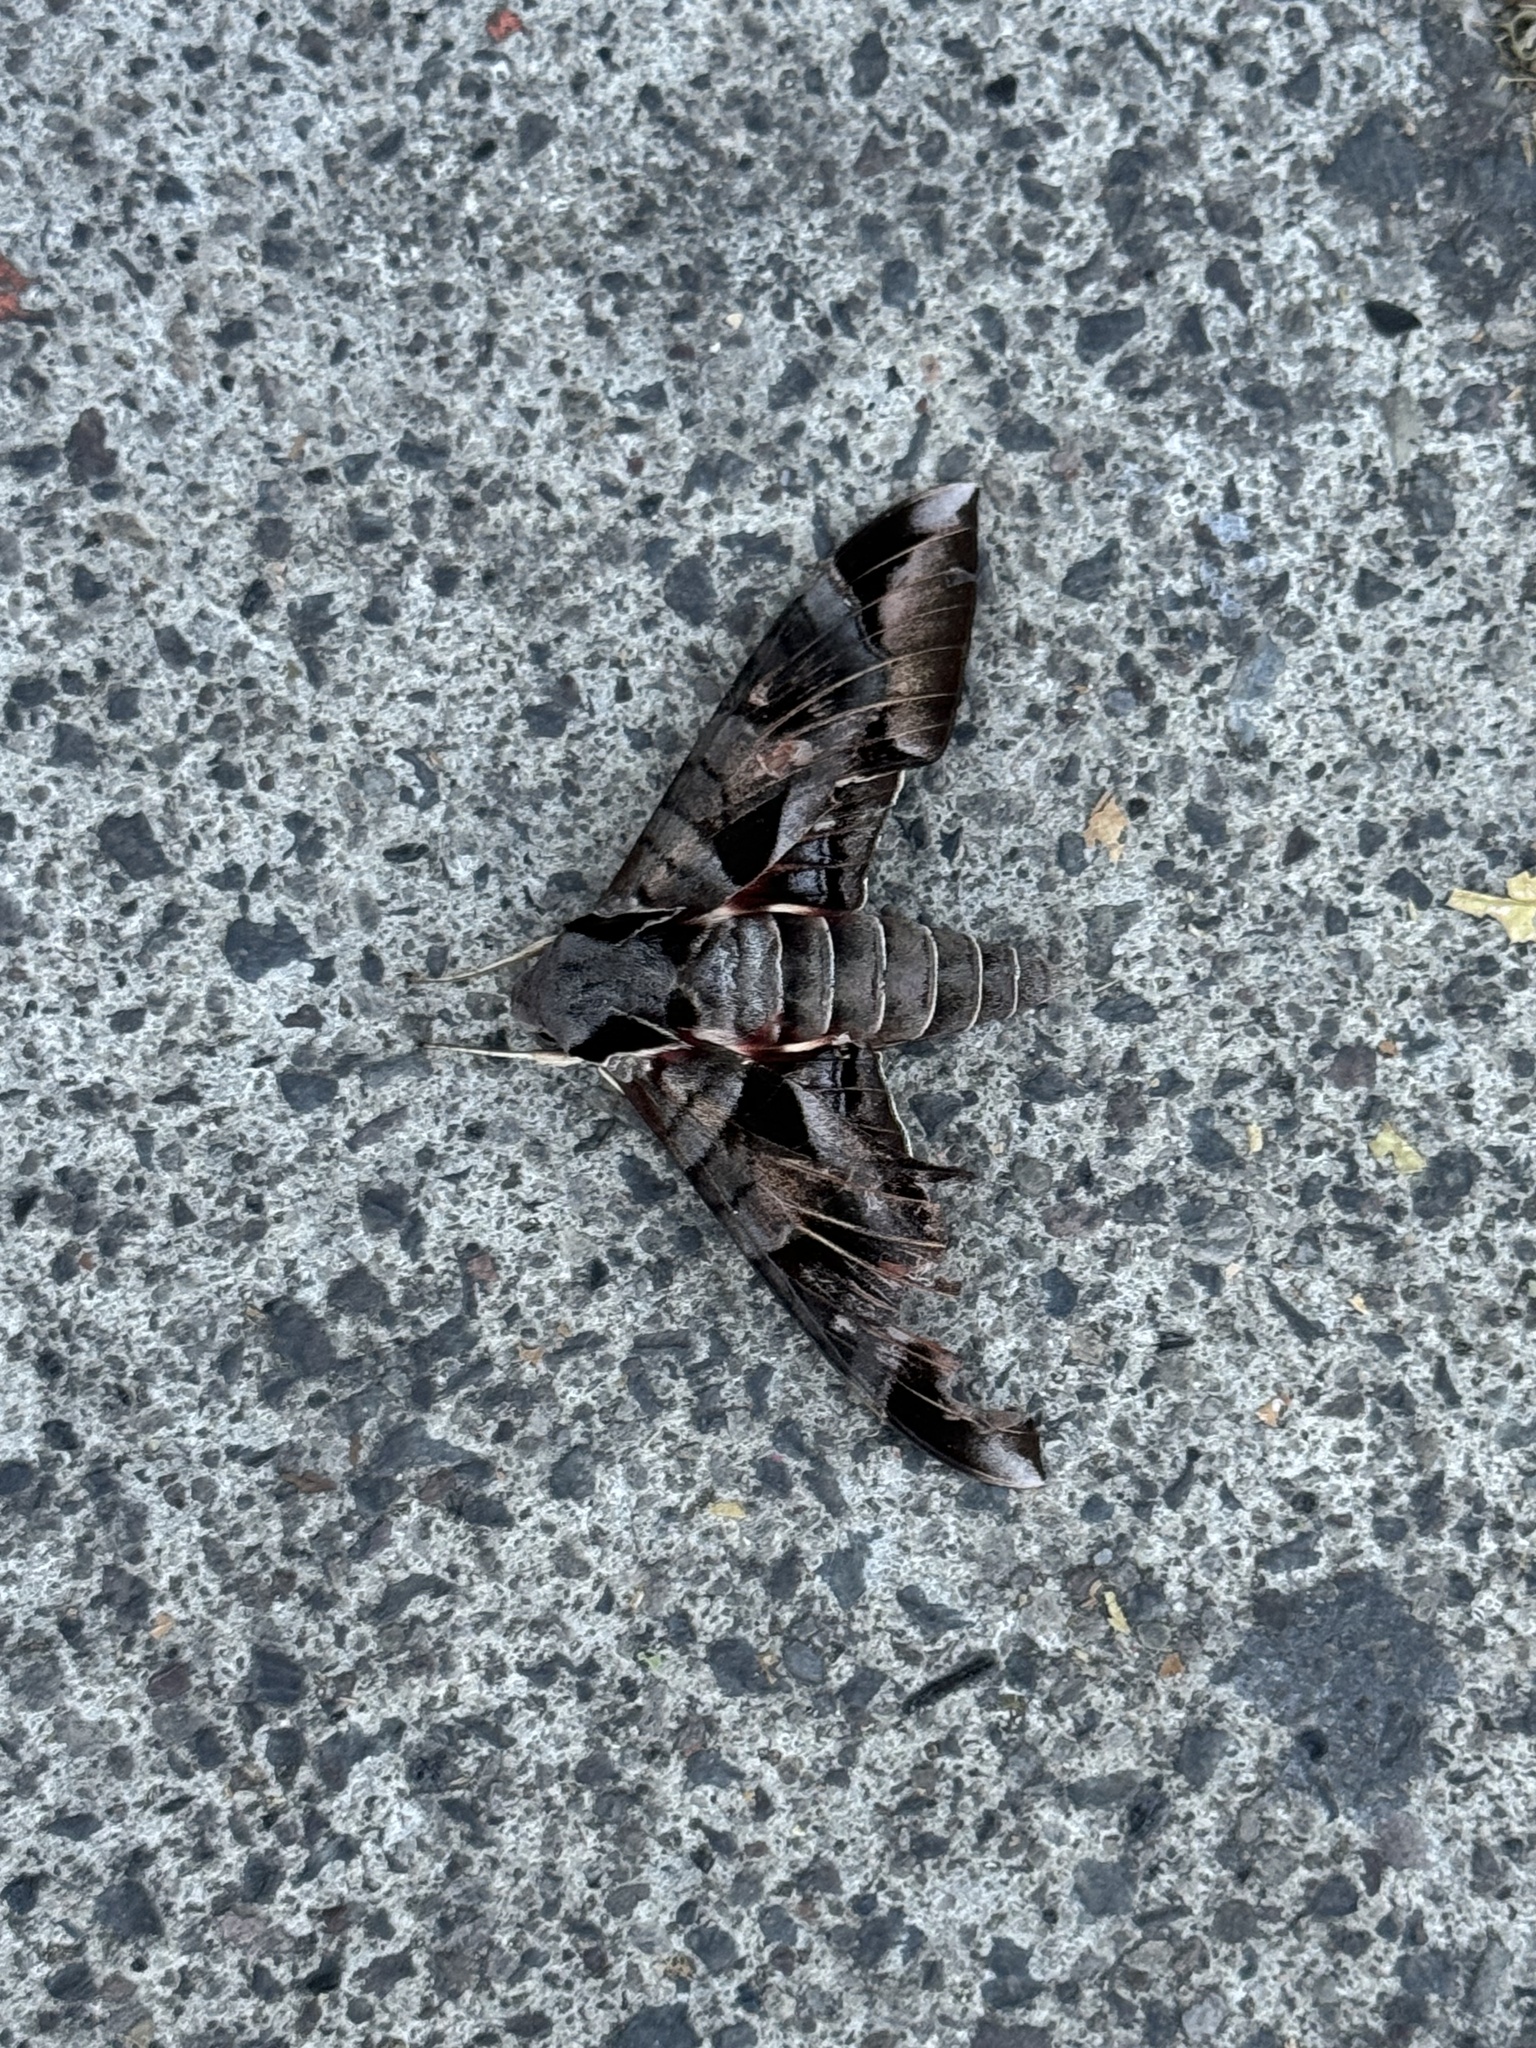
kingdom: Animalia
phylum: Arthropoda
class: Insecta
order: Lepidoptera
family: Sphingidae
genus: Eumorpha
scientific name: Eumorpha typhon
